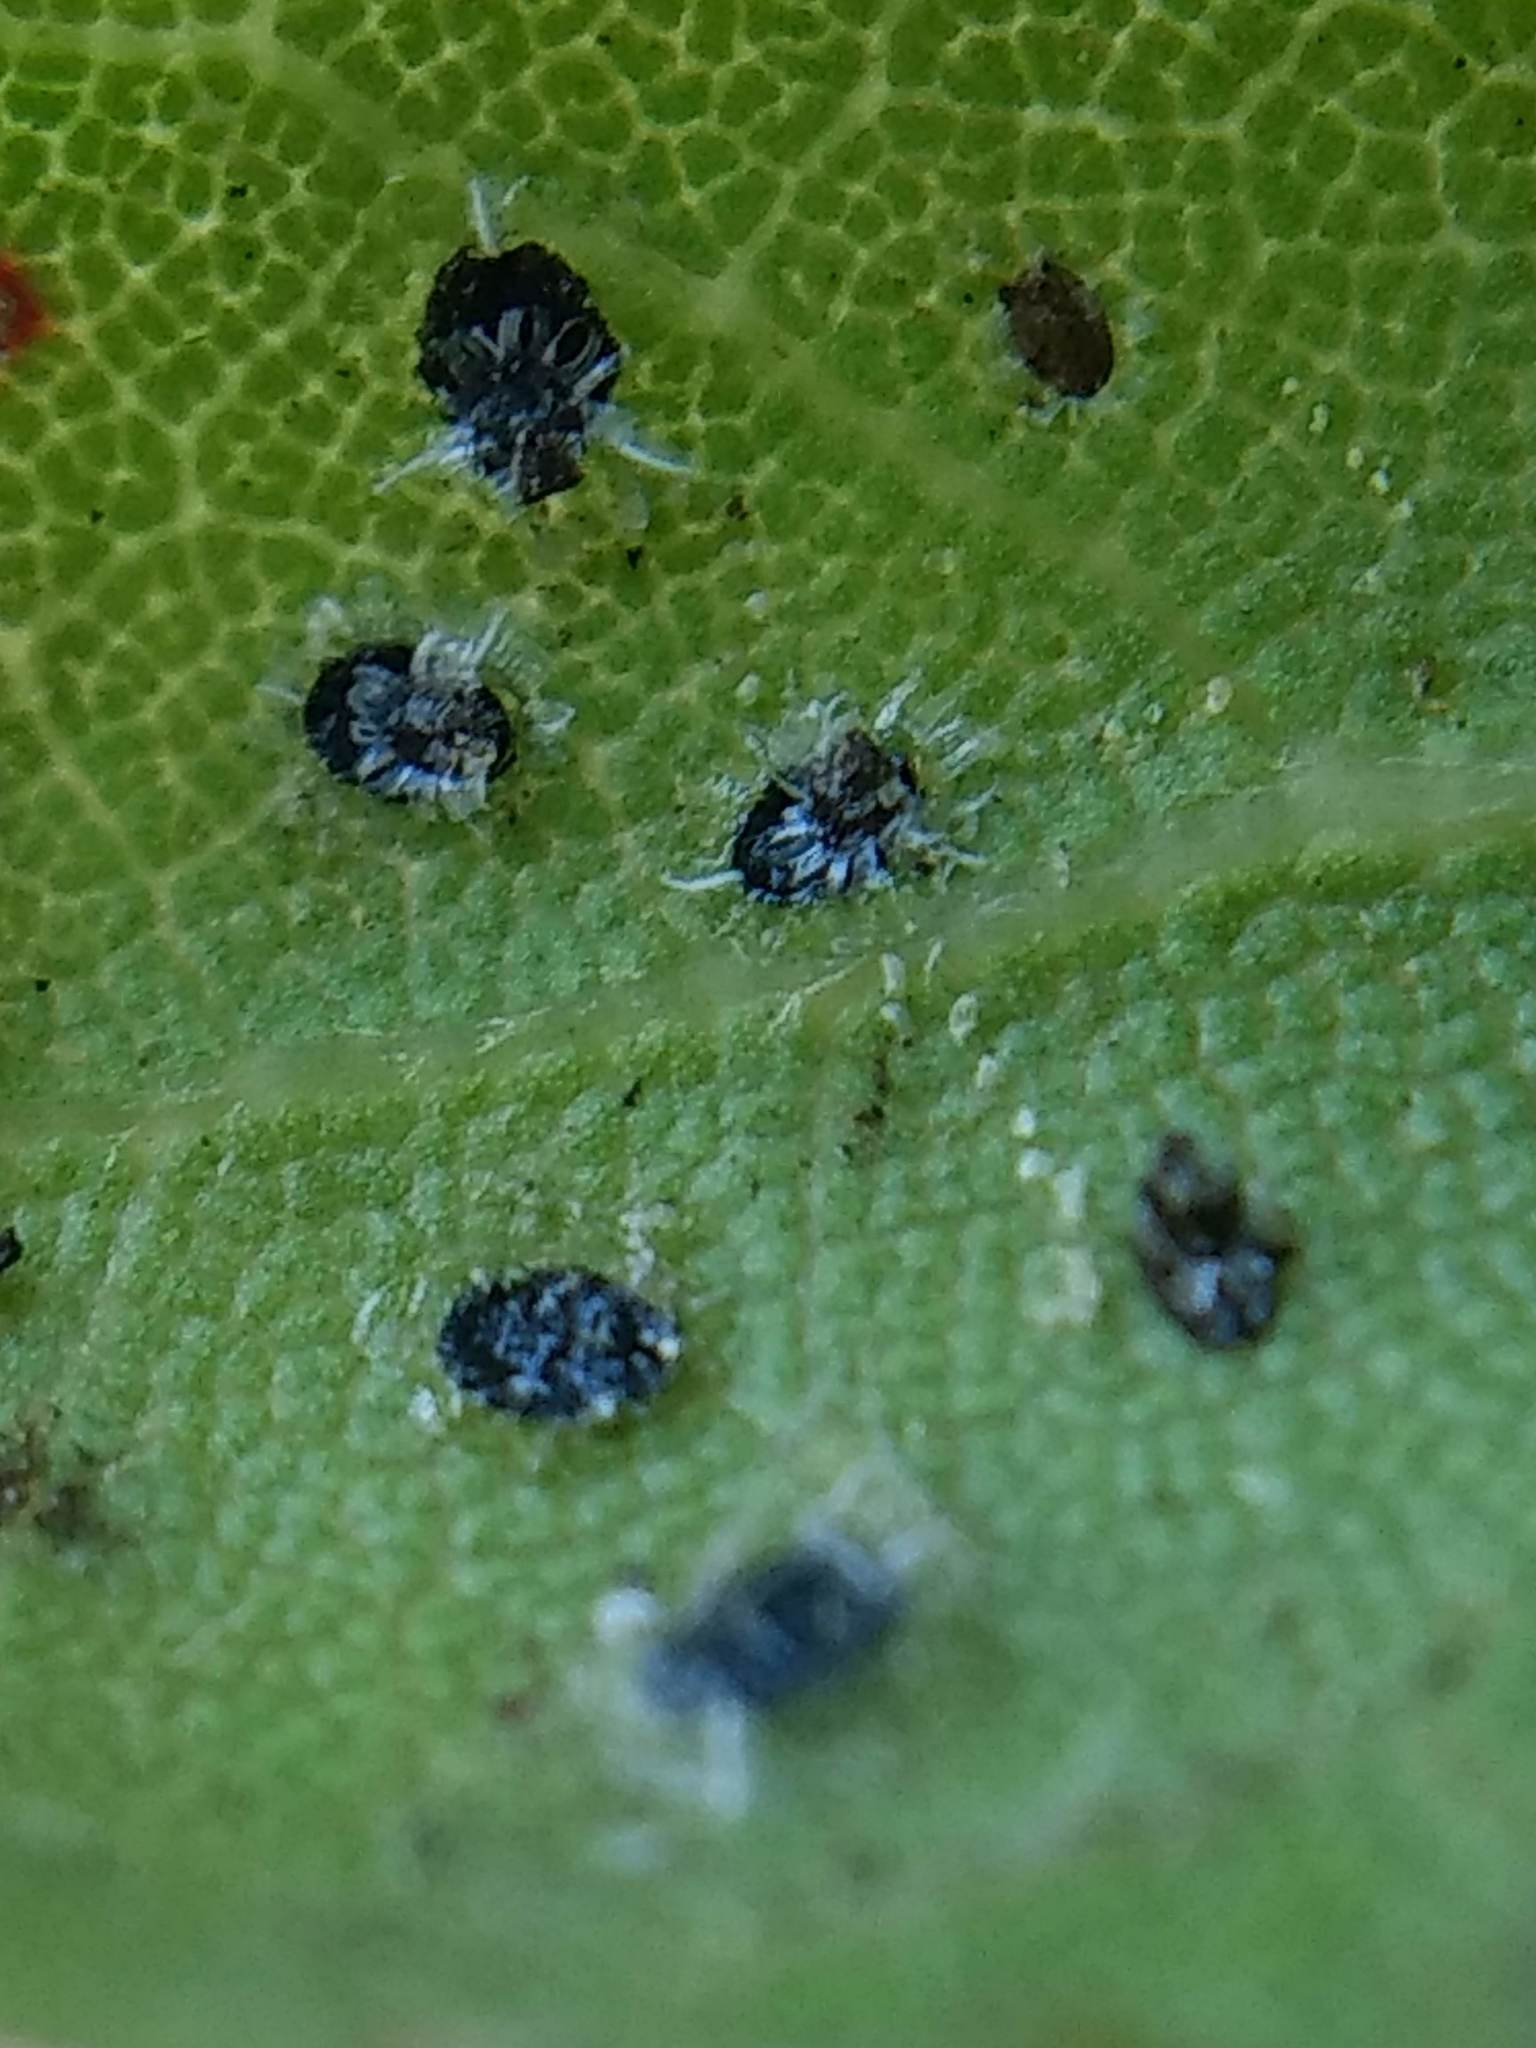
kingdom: Animalia
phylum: Arthropoda
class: Insecta
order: Hemiptera
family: Aleyrodidae
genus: Aleuroplatus
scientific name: Aleuroplatus gelatinosus
